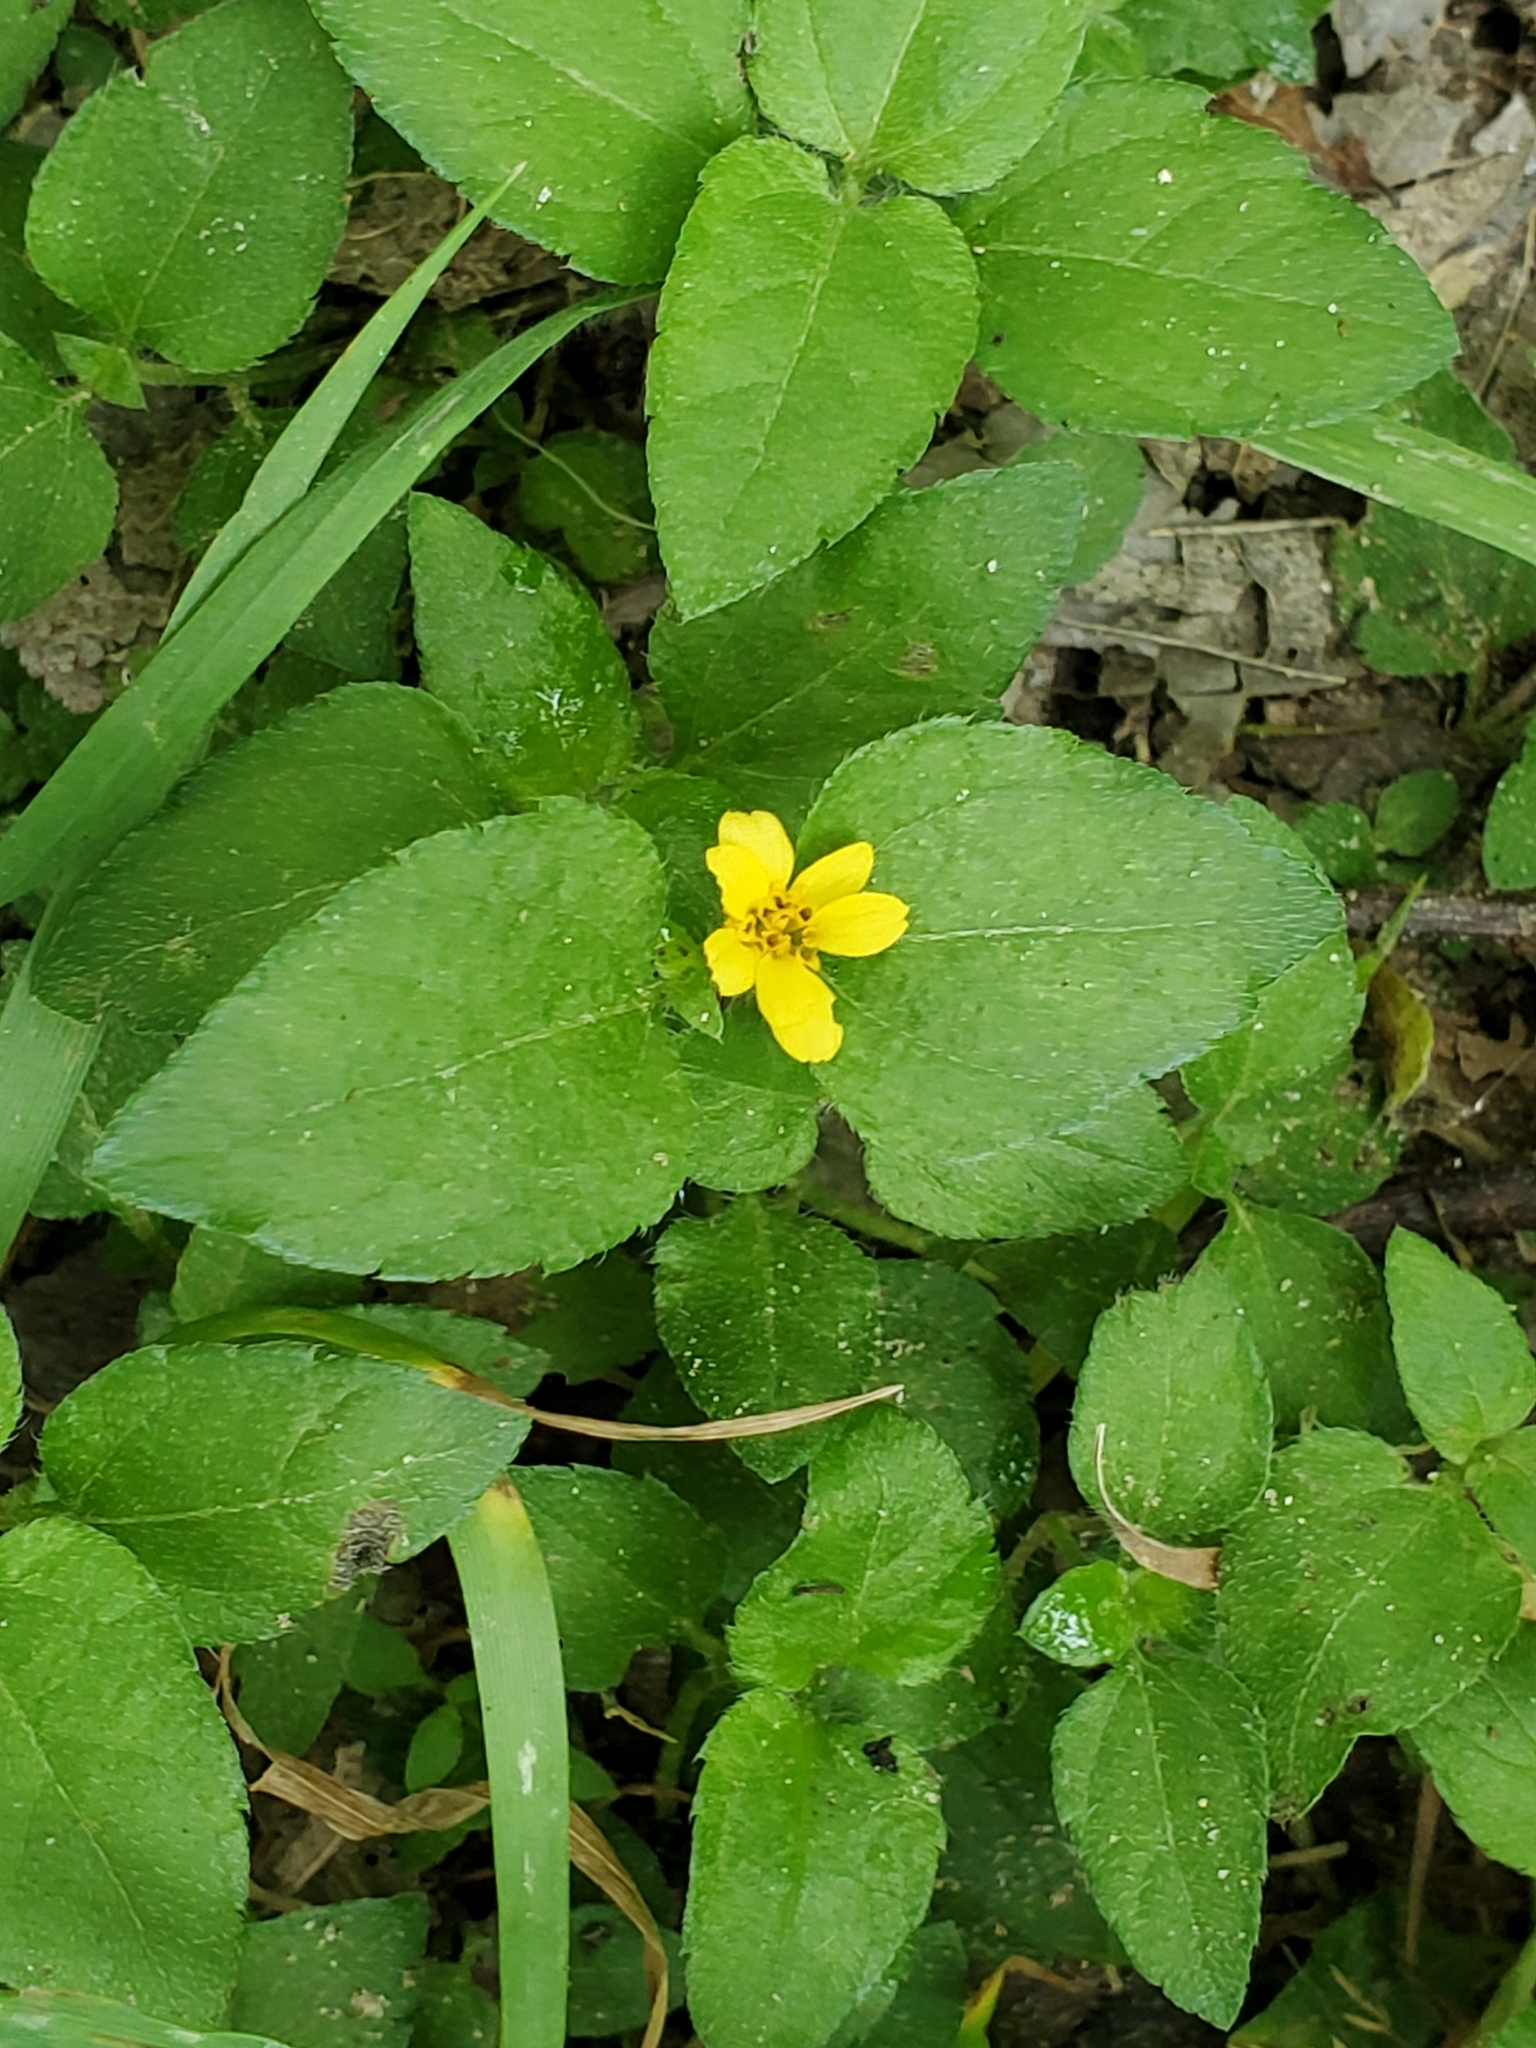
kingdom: Plantae
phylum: Tracheophyta
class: Magnoliopsida
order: Asterales
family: Asteraceae
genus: Calyptocarpus
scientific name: Calyptocarpus vialis
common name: Straggler daisy
